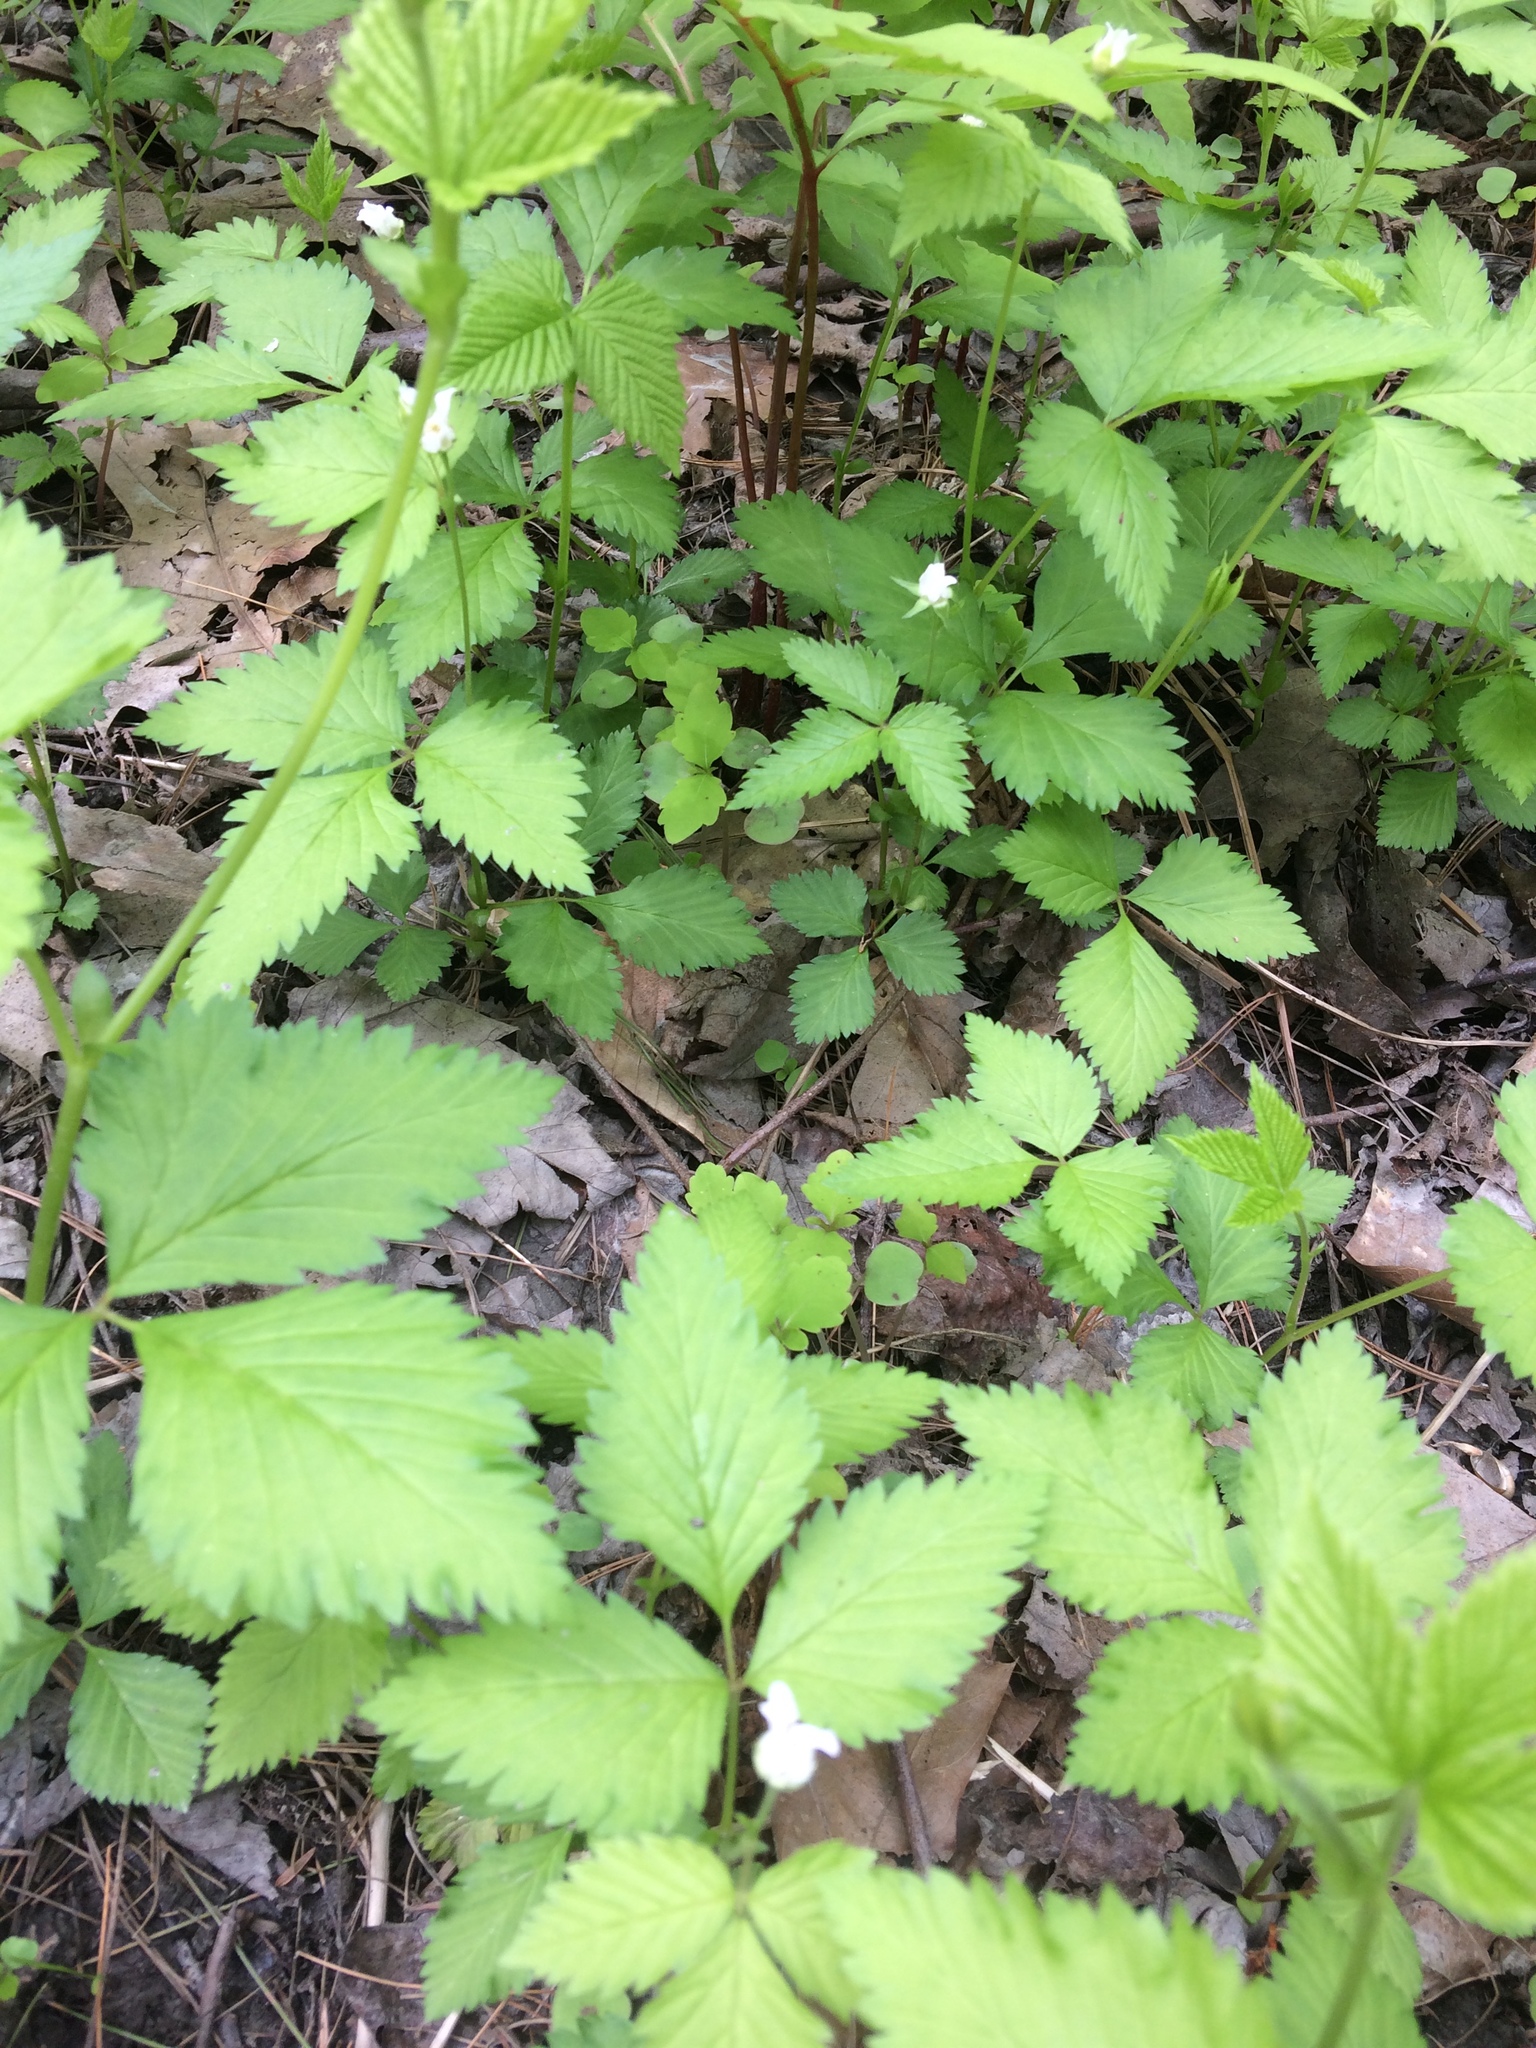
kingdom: Plantae
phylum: Tracheophyta
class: Magnoliopsida
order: Rosales
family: Rosaceae
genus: Rubus
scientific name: Rubus pubescens
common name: Dwarf raspberry
